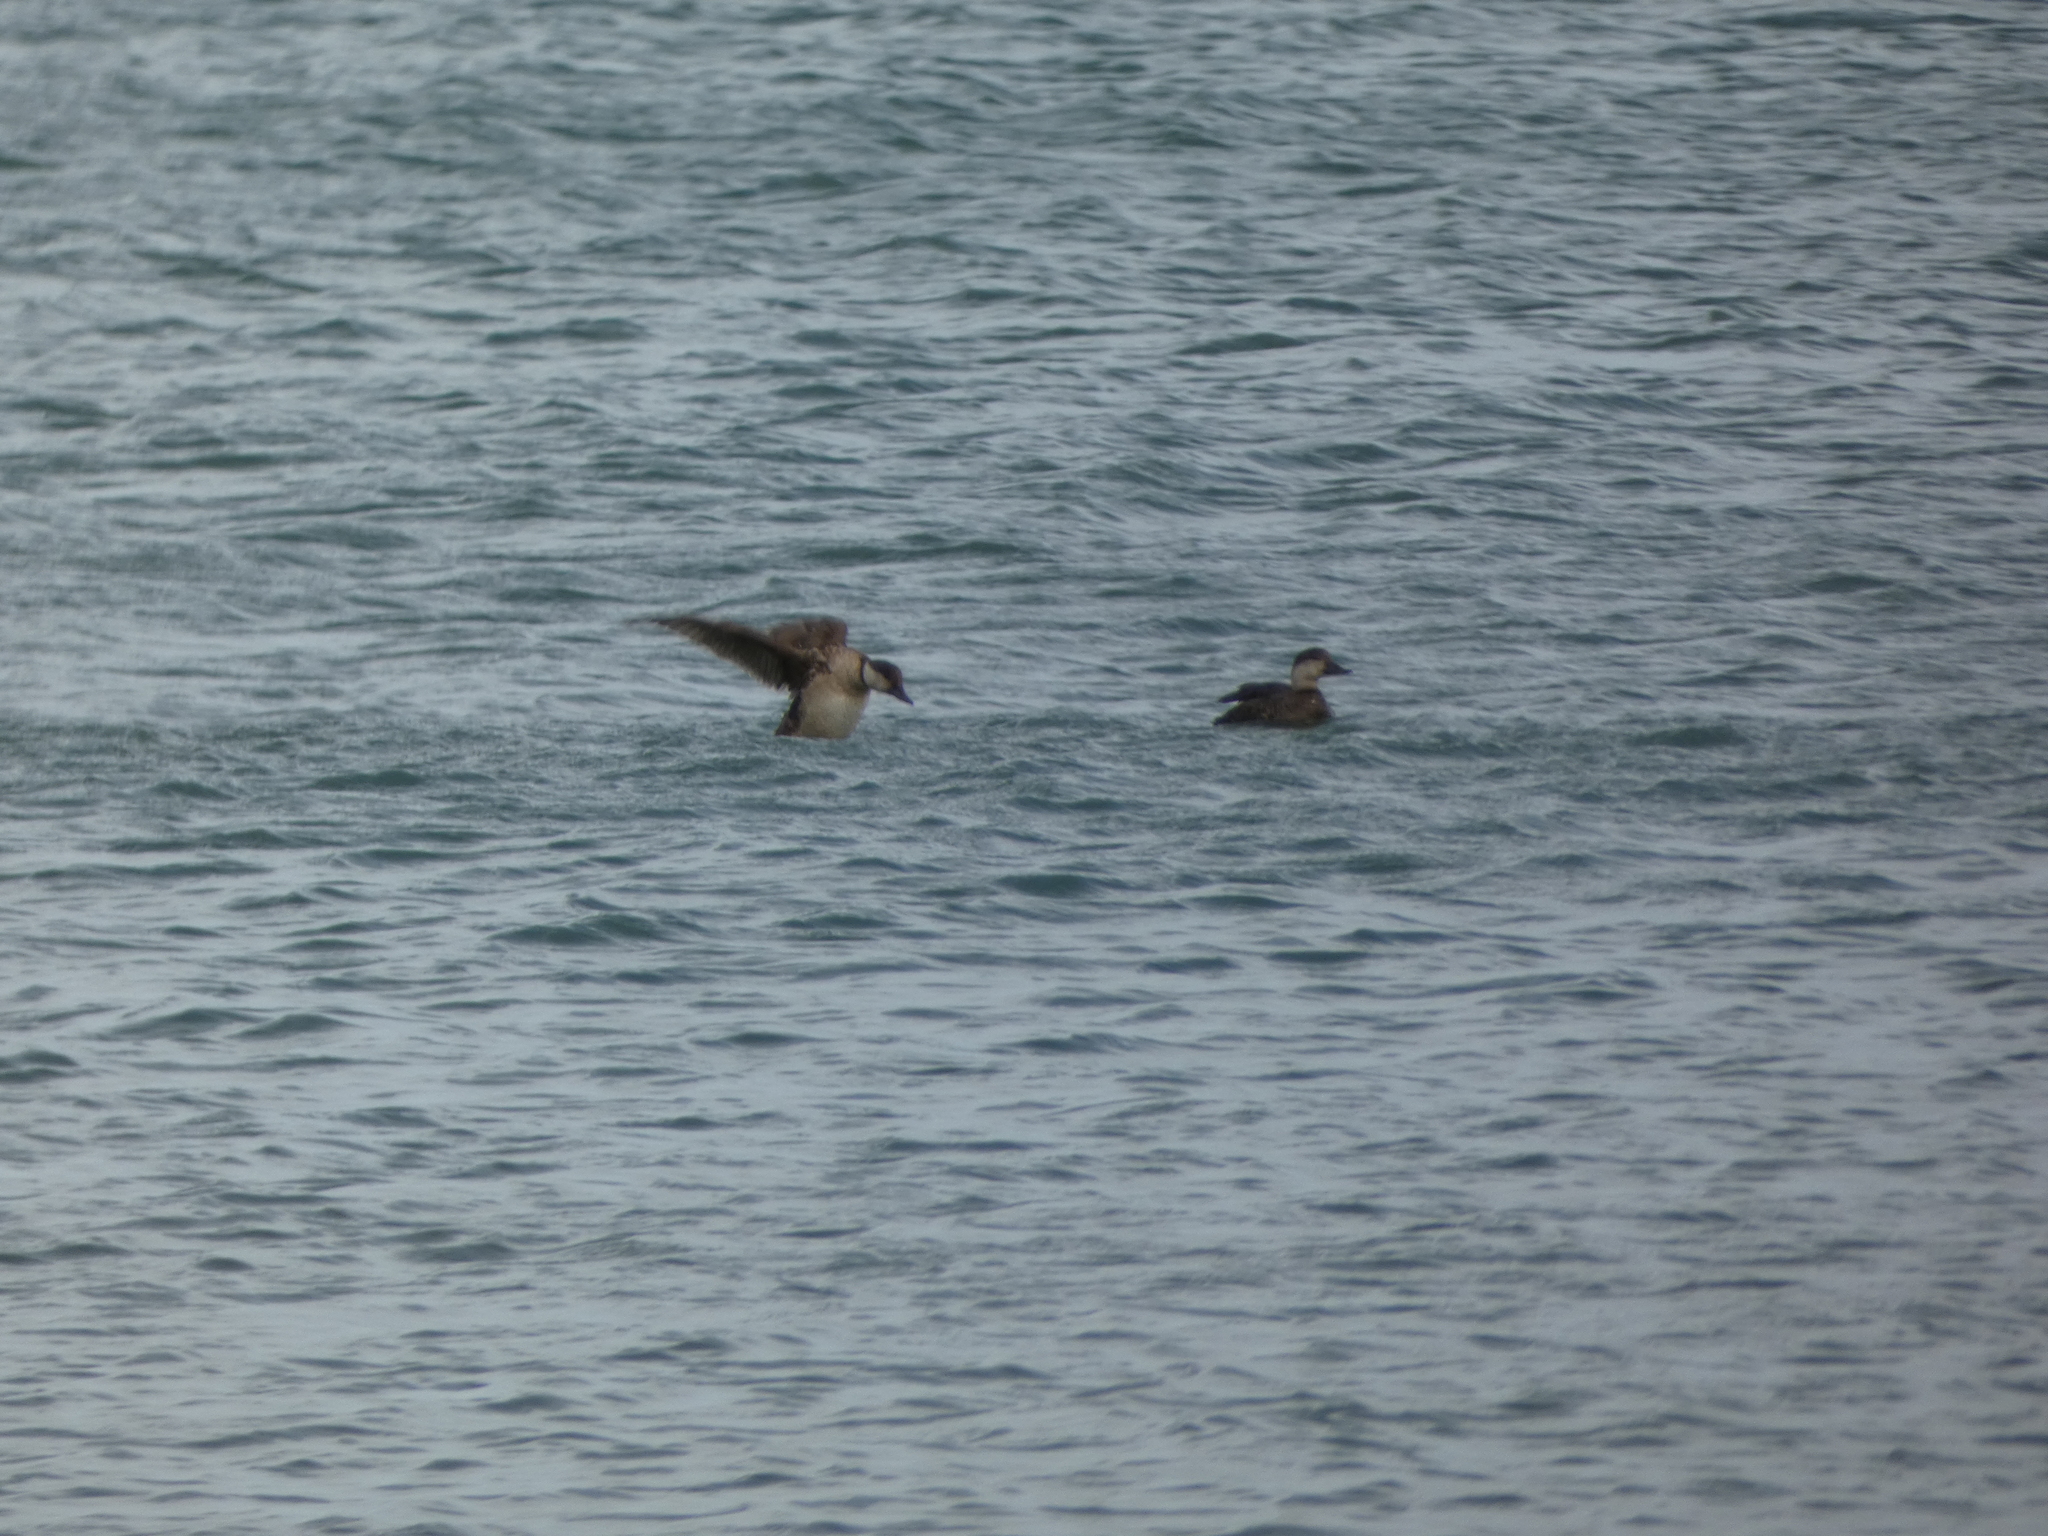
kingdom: Animalia
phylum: Chordata
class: Aves
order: Anseriformes
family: Anatidae
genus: Melanitta
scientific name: Melanitta americana
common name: Black scoter
